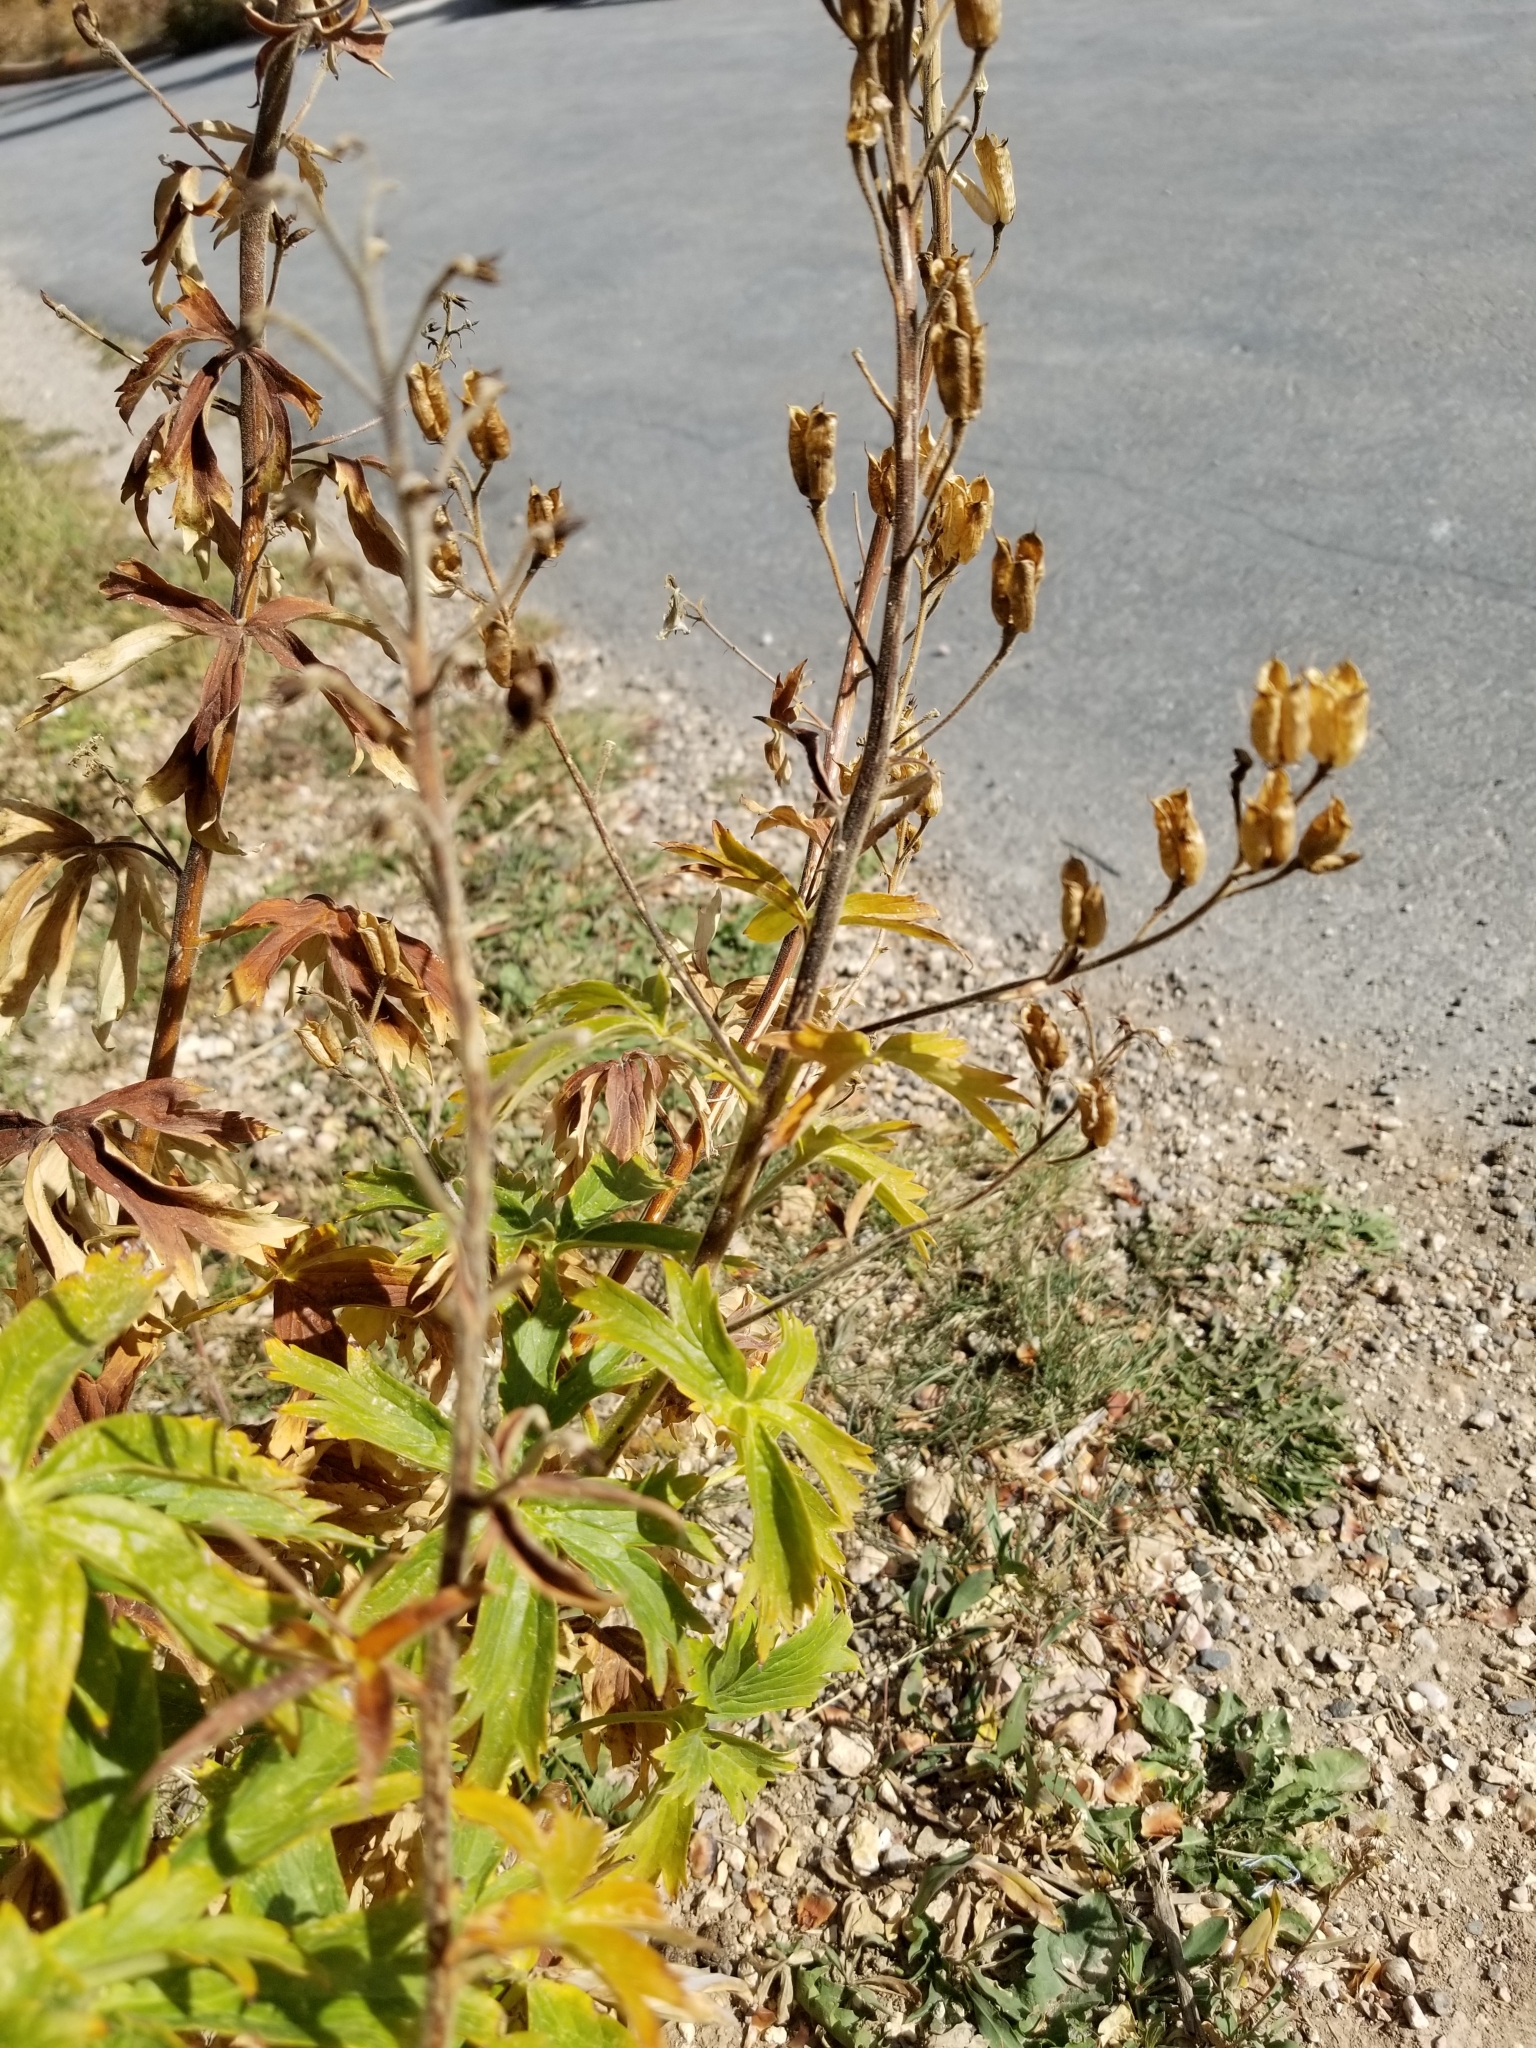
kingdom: Plantae
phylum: Tracheophyta
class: Magnoliopsida
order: Ranunculales
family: Ranunculaceae
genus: Delphinium
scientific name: Delphinium barbeyi
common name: Subalpine larkspur
